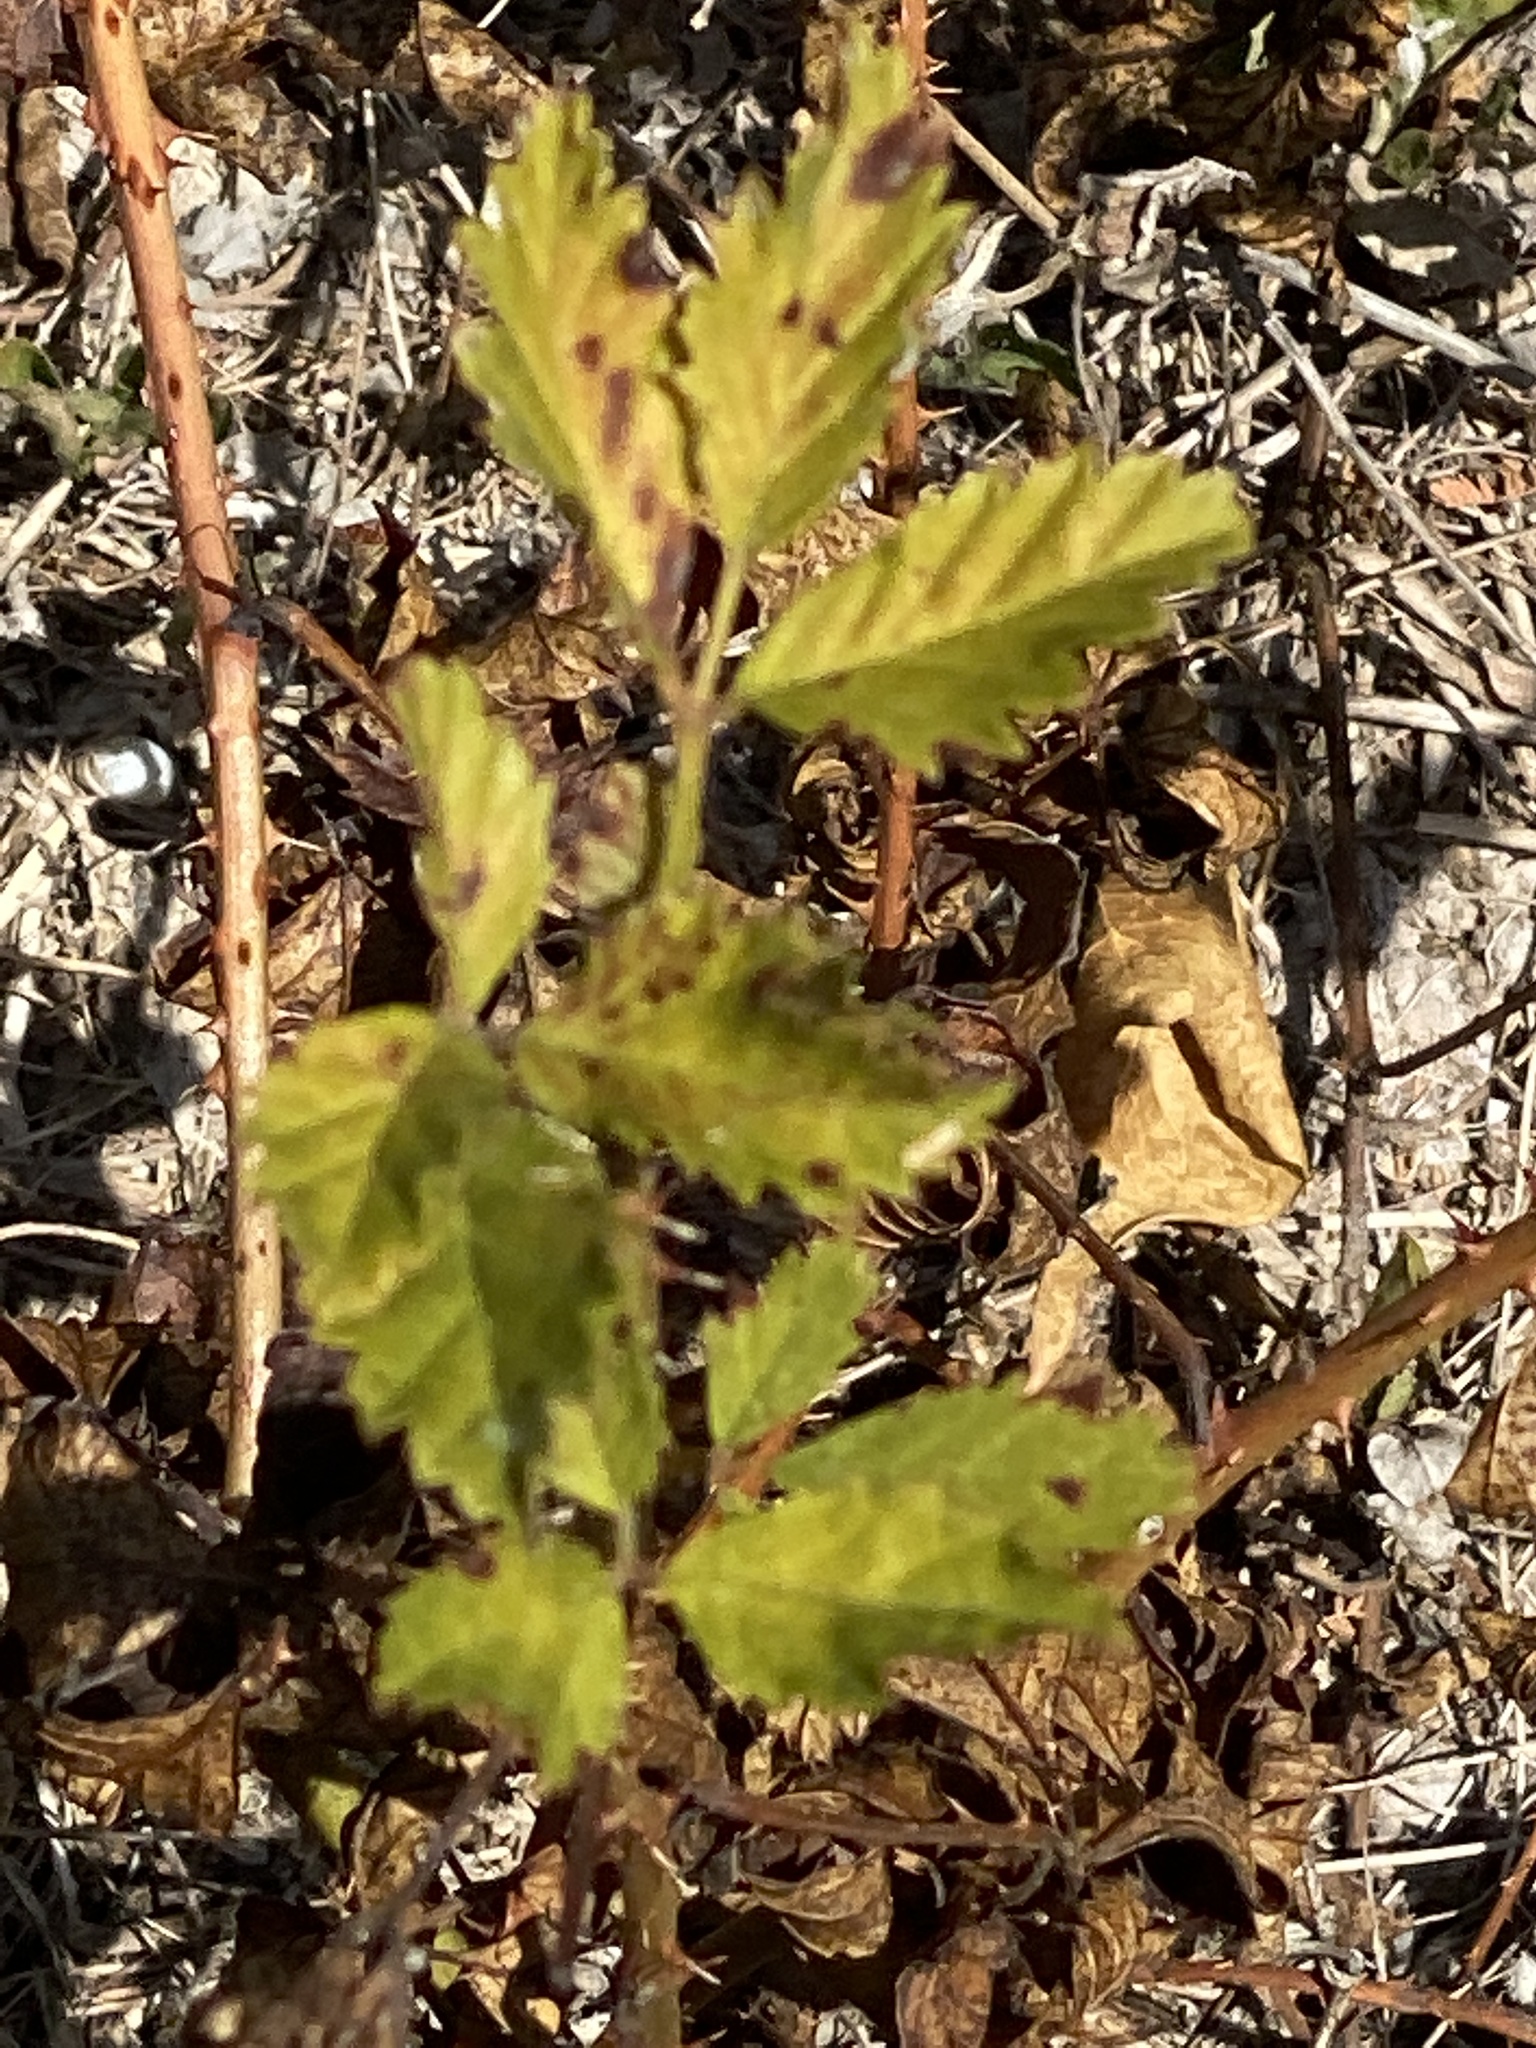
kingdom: Plantae
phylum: Tracheophyta
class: Magnoliopsida
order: Rosales
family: Rosaceae
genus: Rubus
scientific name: Rubus trivialis
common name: Southern dewberry
